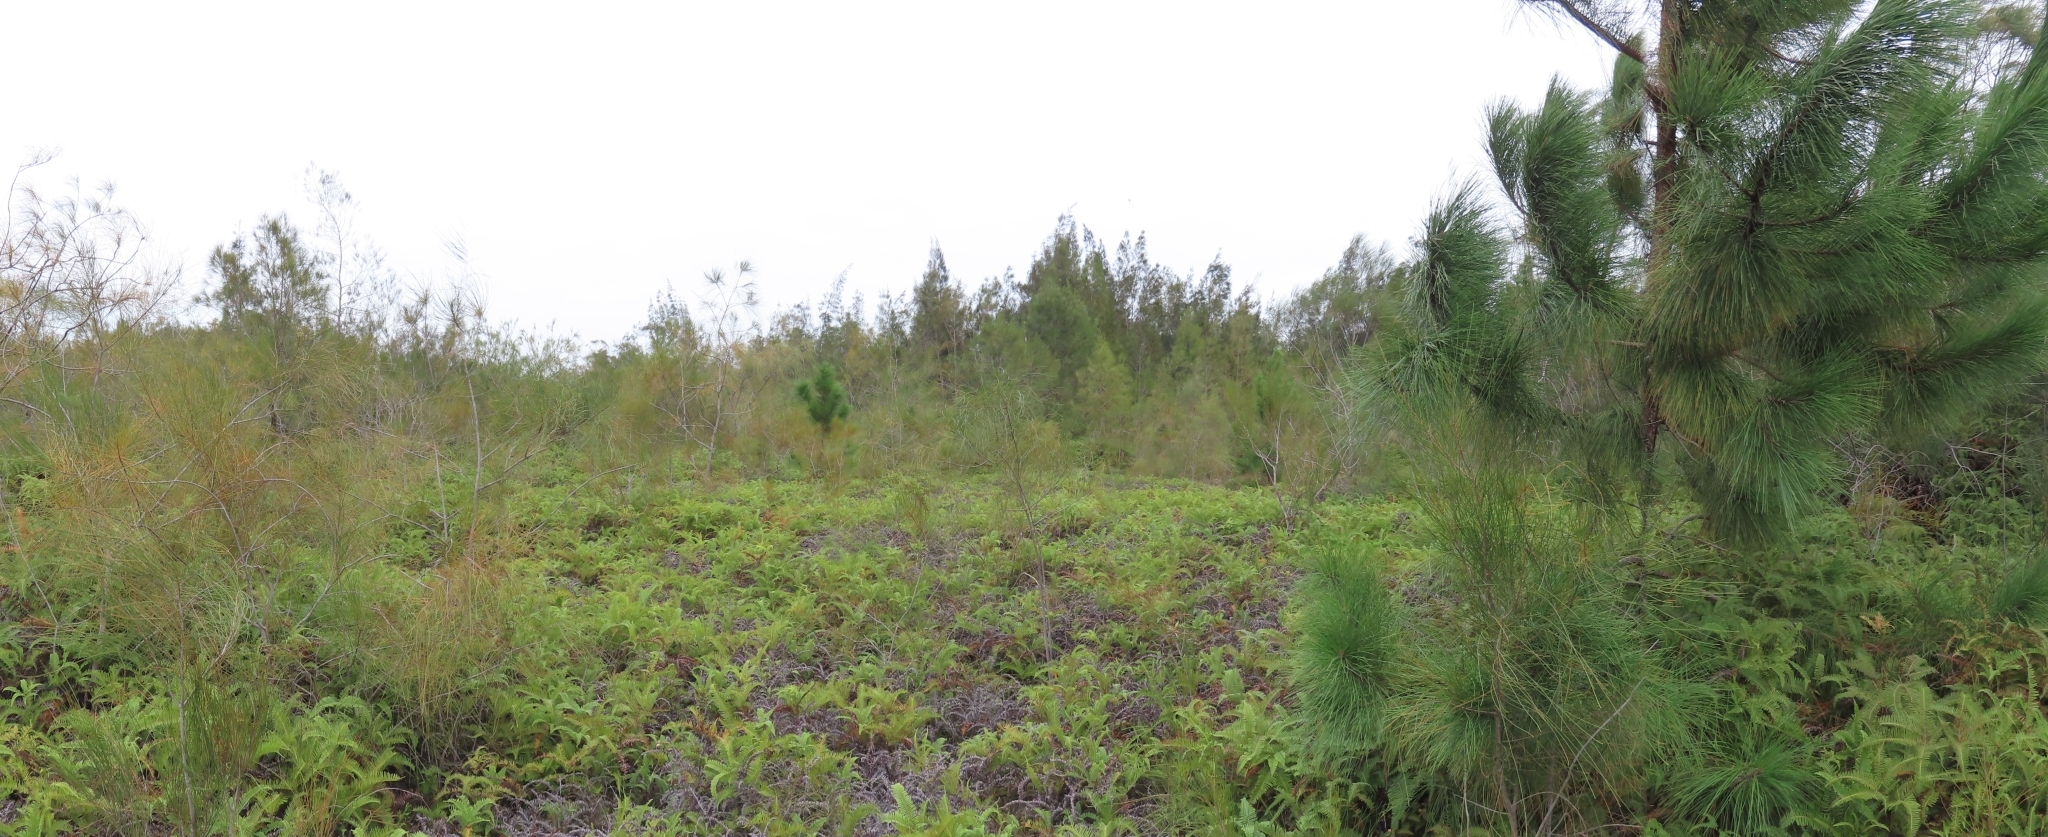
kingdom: Plantae
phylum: Tracheophyta
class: Polypodiopsida
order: Gleicheniales
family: Gleicheniaceae
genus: Dicranopteris
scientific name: Dicranopteris linearis
